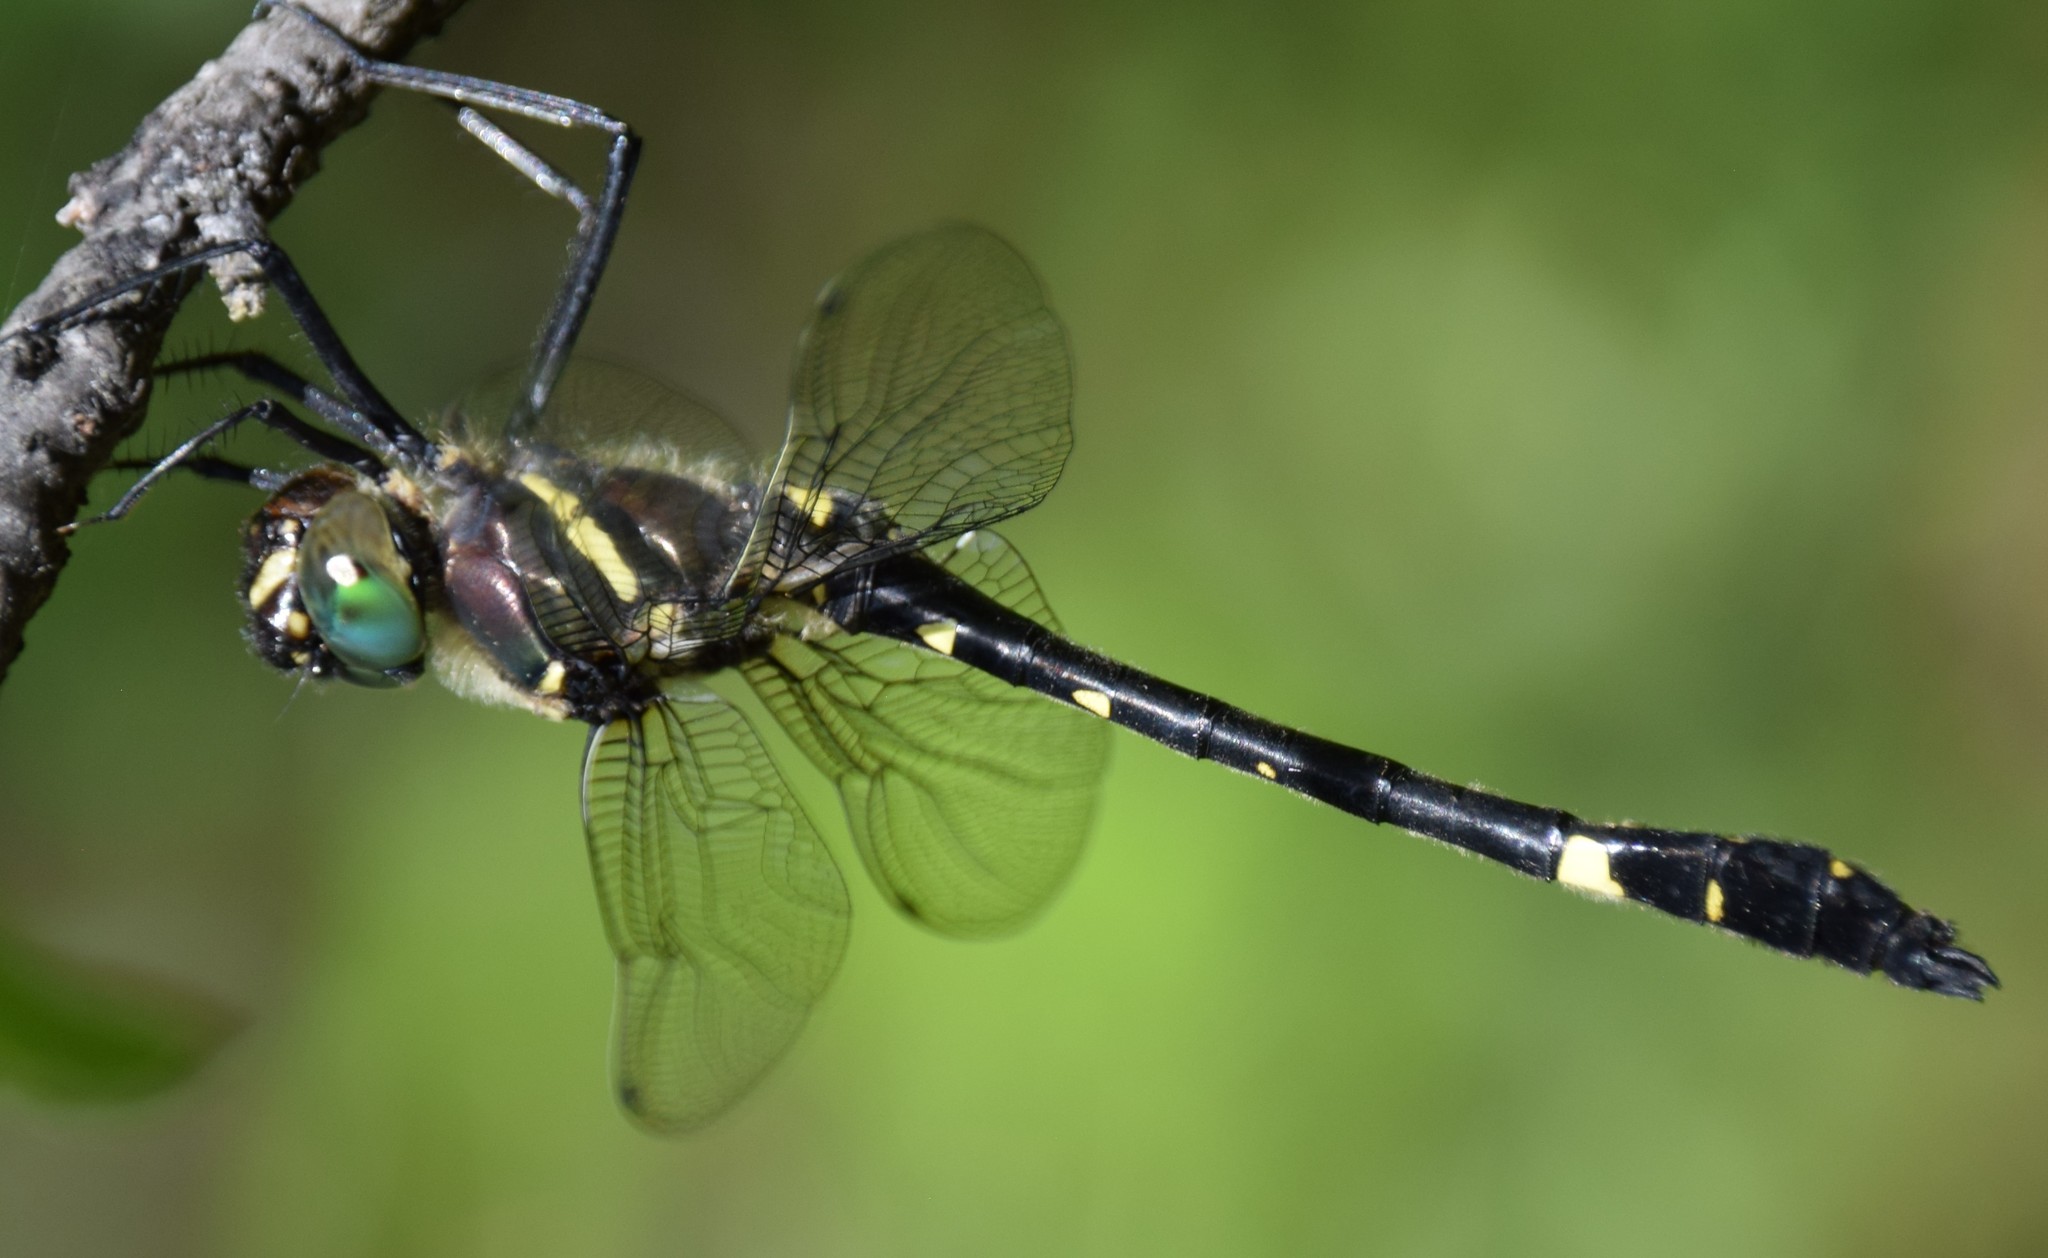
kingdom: Animalia
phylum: Arthropoda
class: Insecta
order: Odonata
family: Macromiidae
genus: Macromia
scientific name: Macromia illinoiensis
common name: Swift river cruiser
